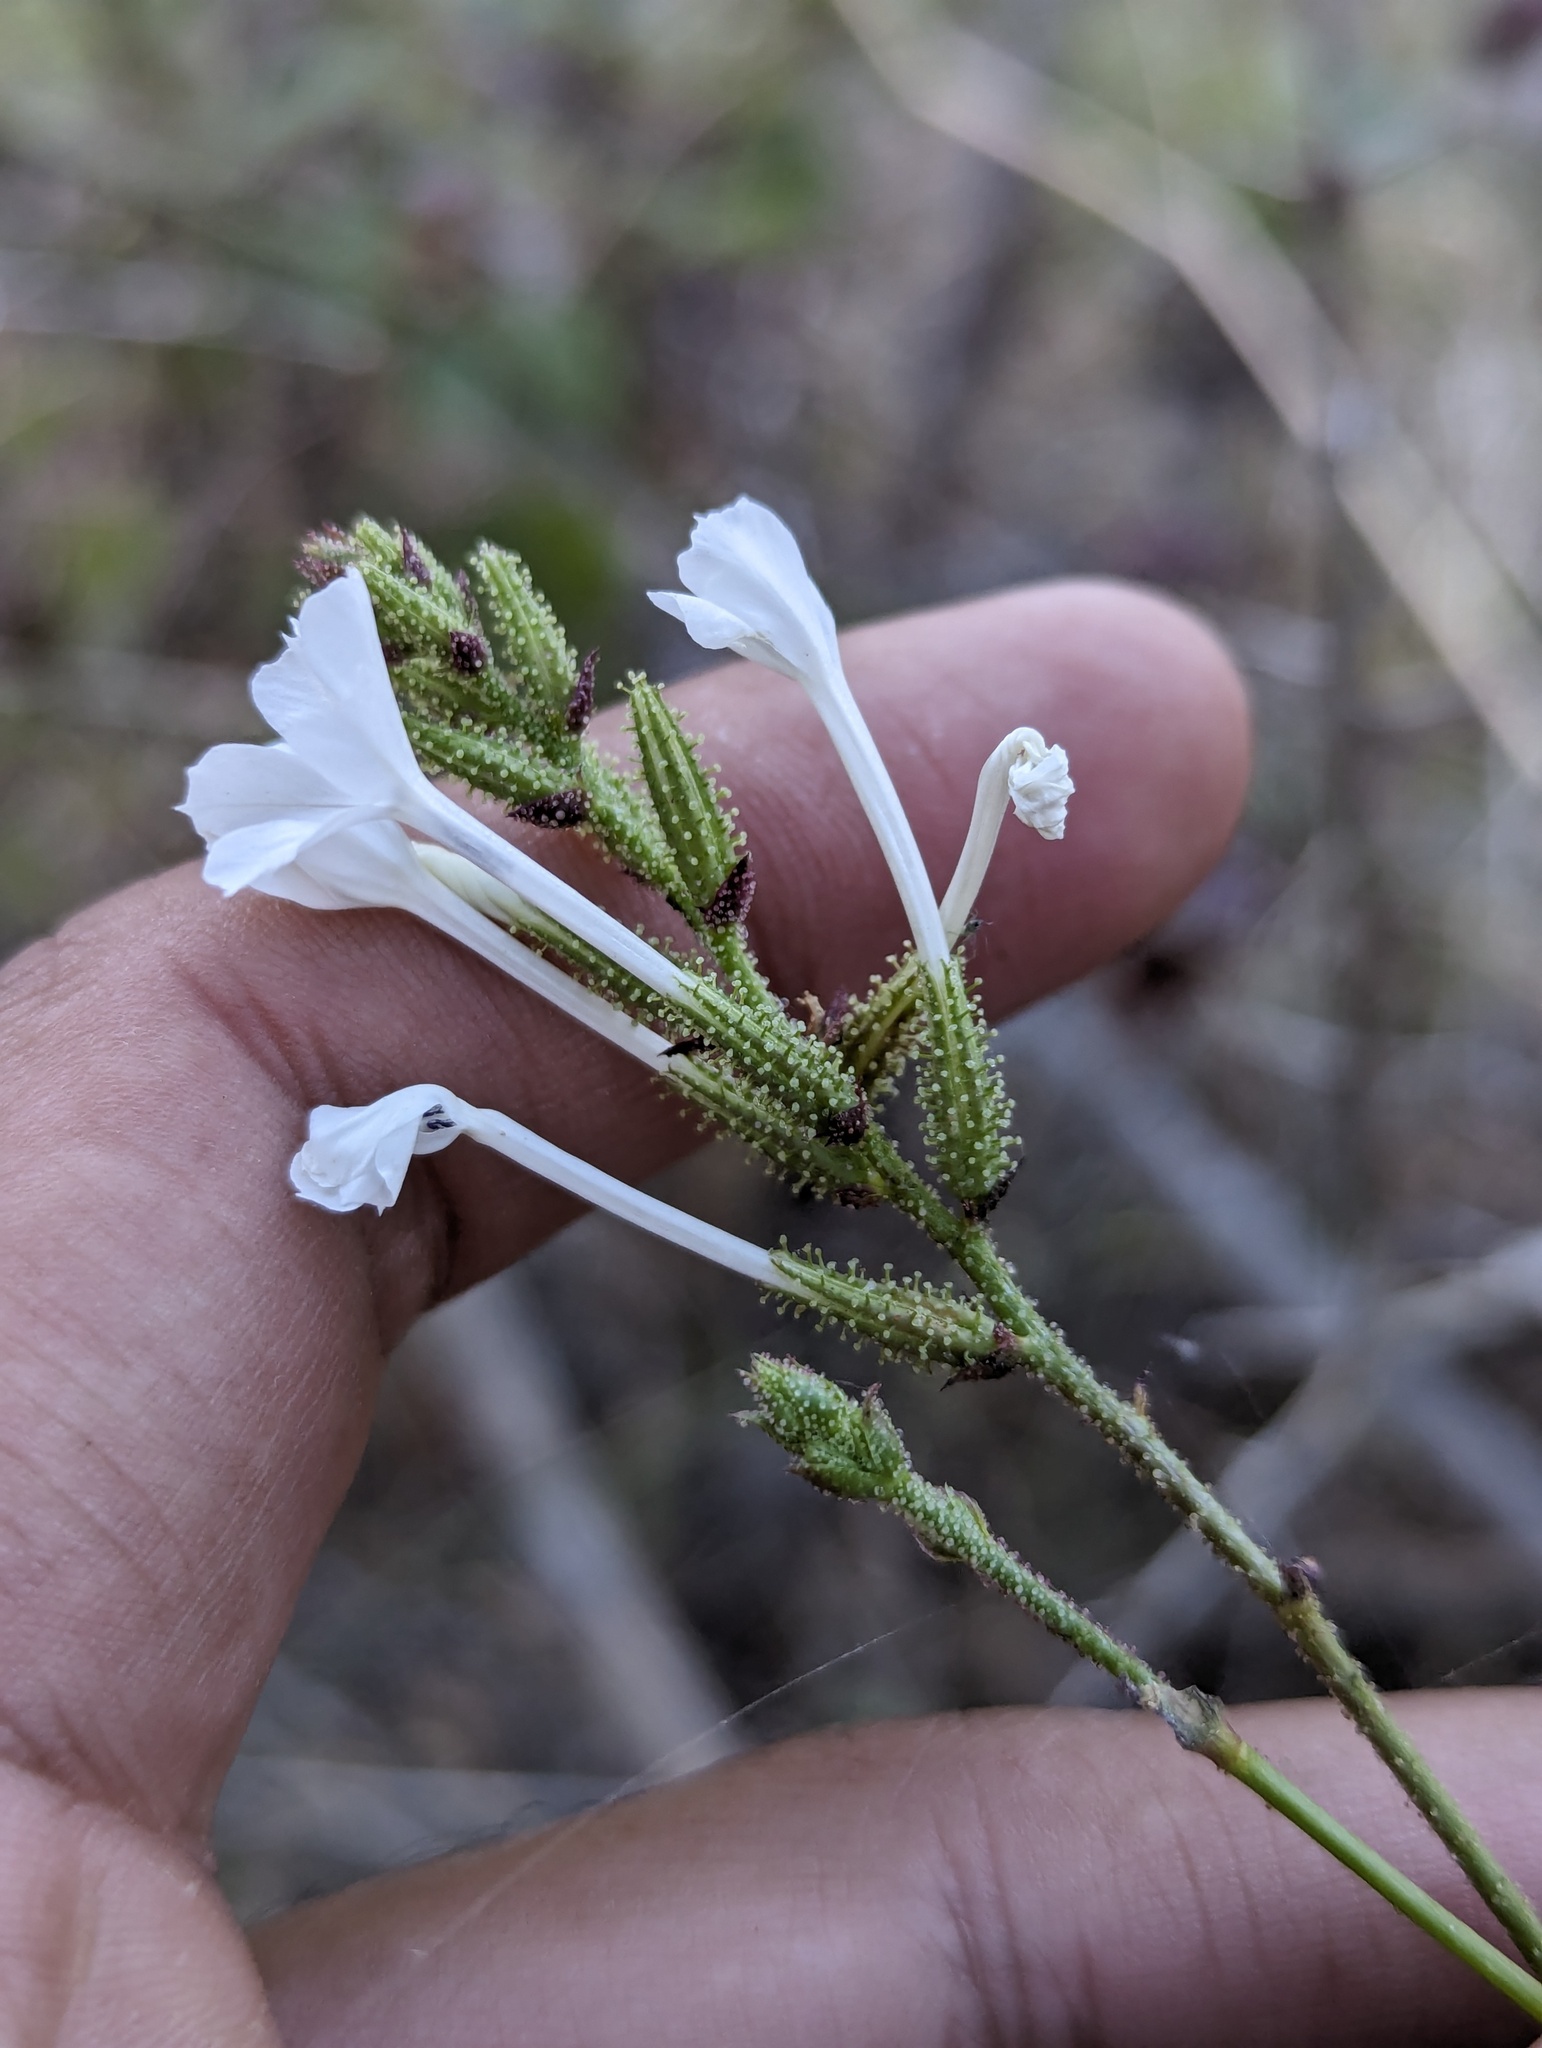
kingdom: Plantae
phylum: Tracheophyta
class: Magnoliopsida
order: Caryophyllales
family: Plumbaginaceae
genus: Plumbago
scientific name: Plumbago zeylanica
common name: Doctorbush
